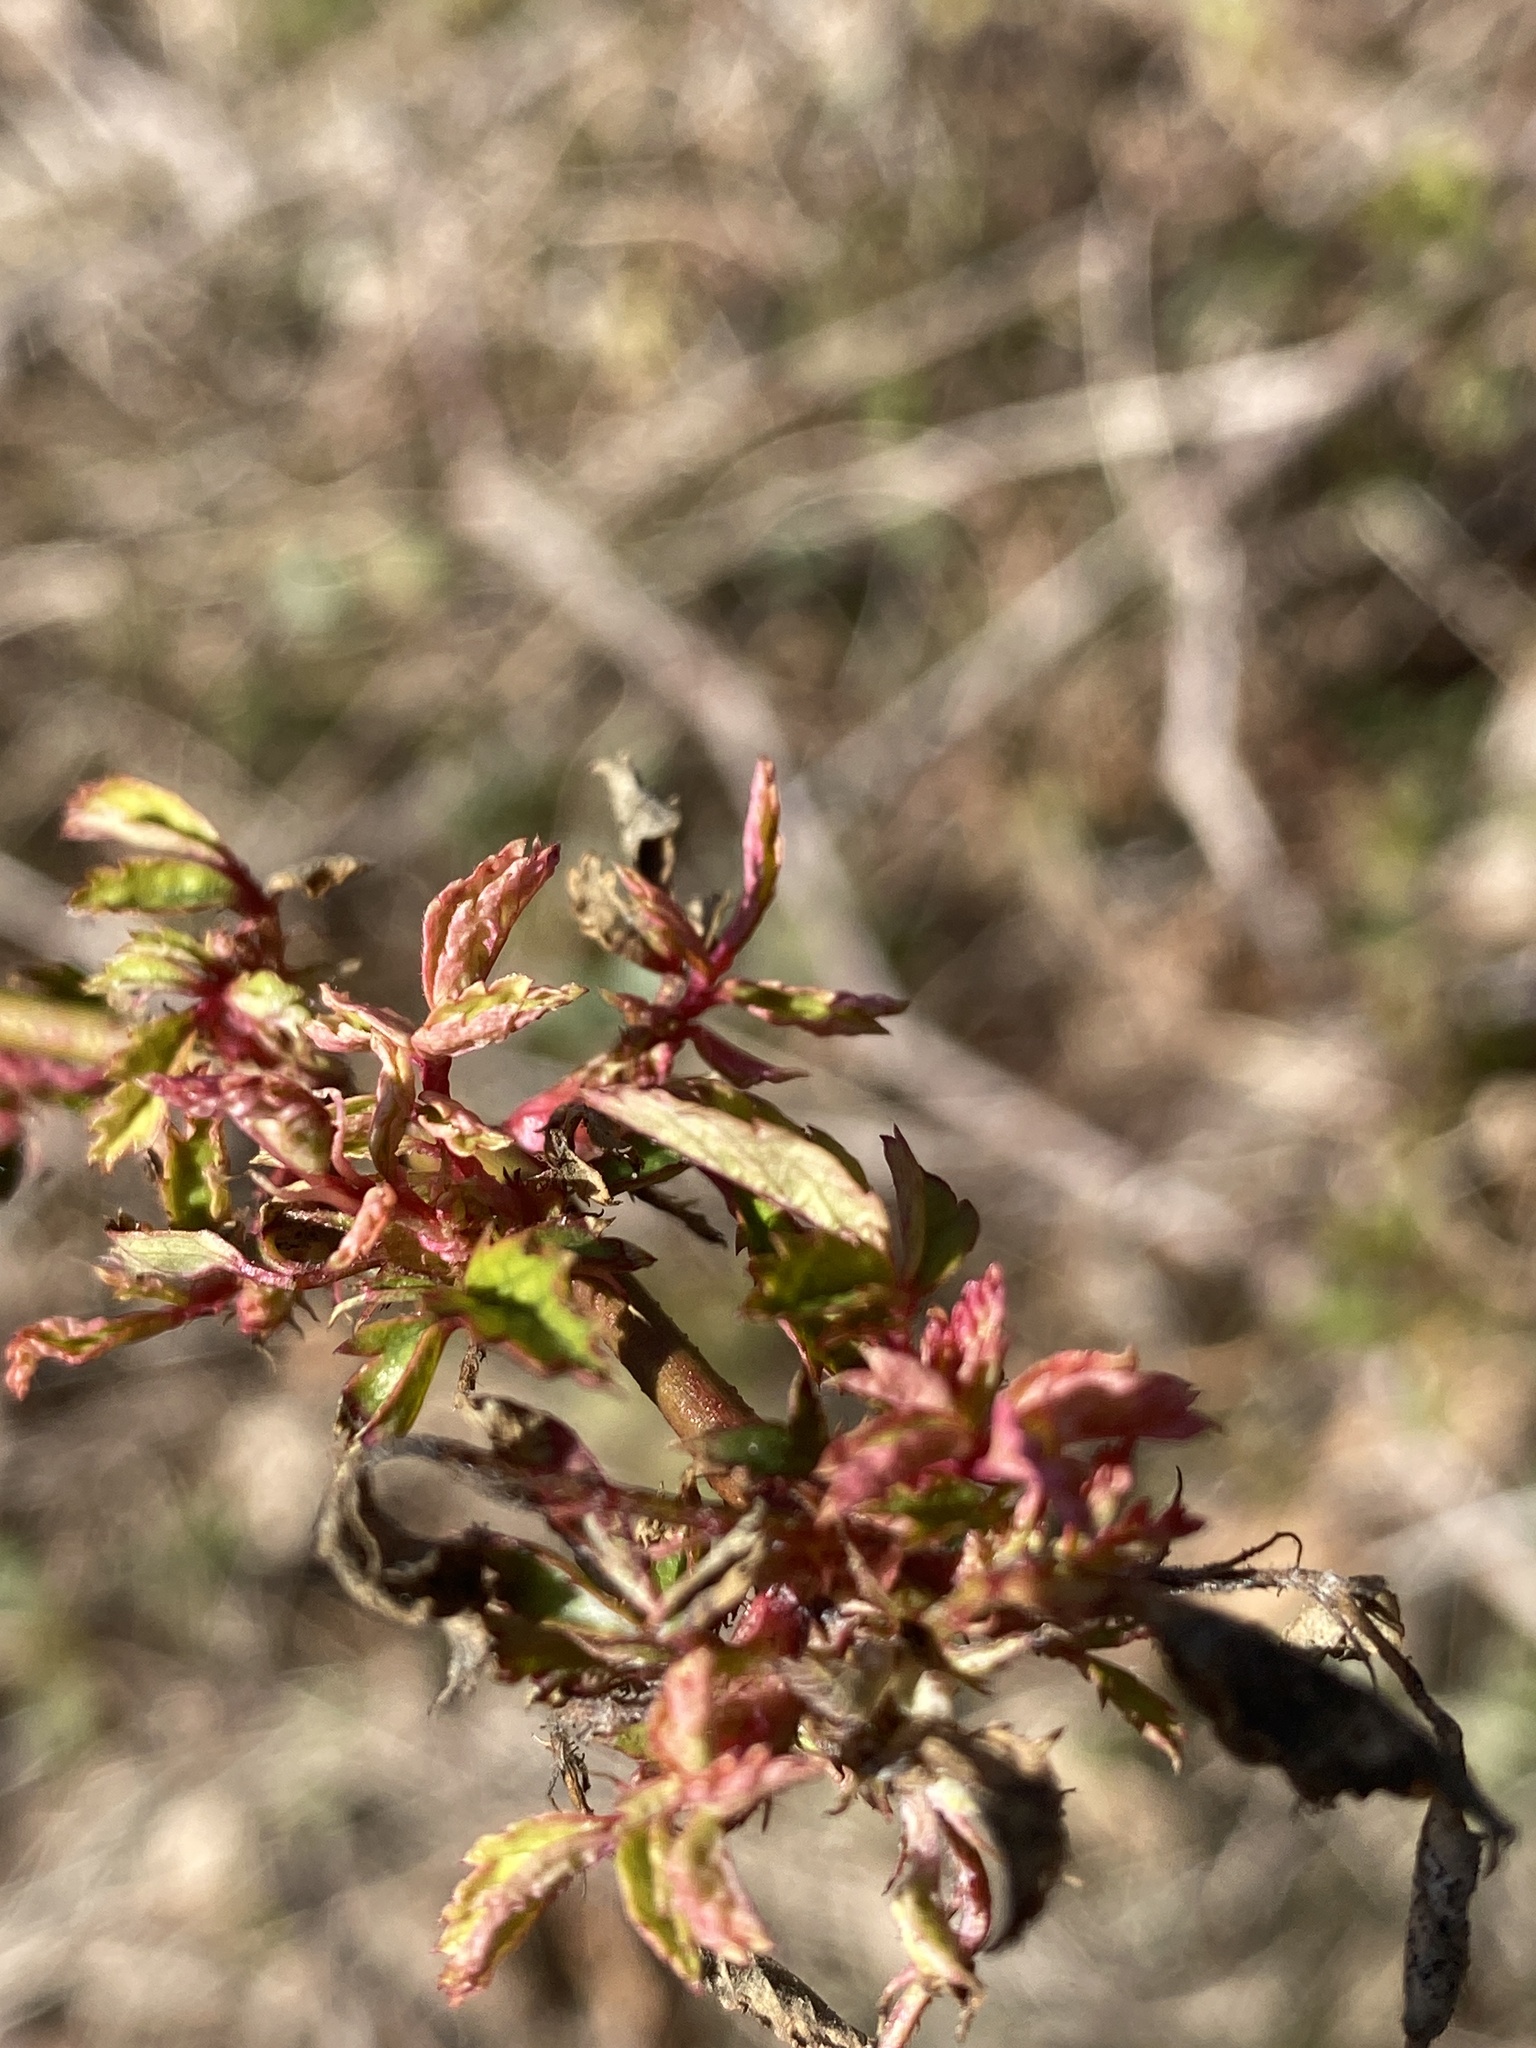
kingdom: Viruses
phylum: Negarnaviricota
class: Ellioviricetes
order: Bunyavirales
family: Fimoviridae
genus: Emaravirus
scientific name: Emaravirus rosae
